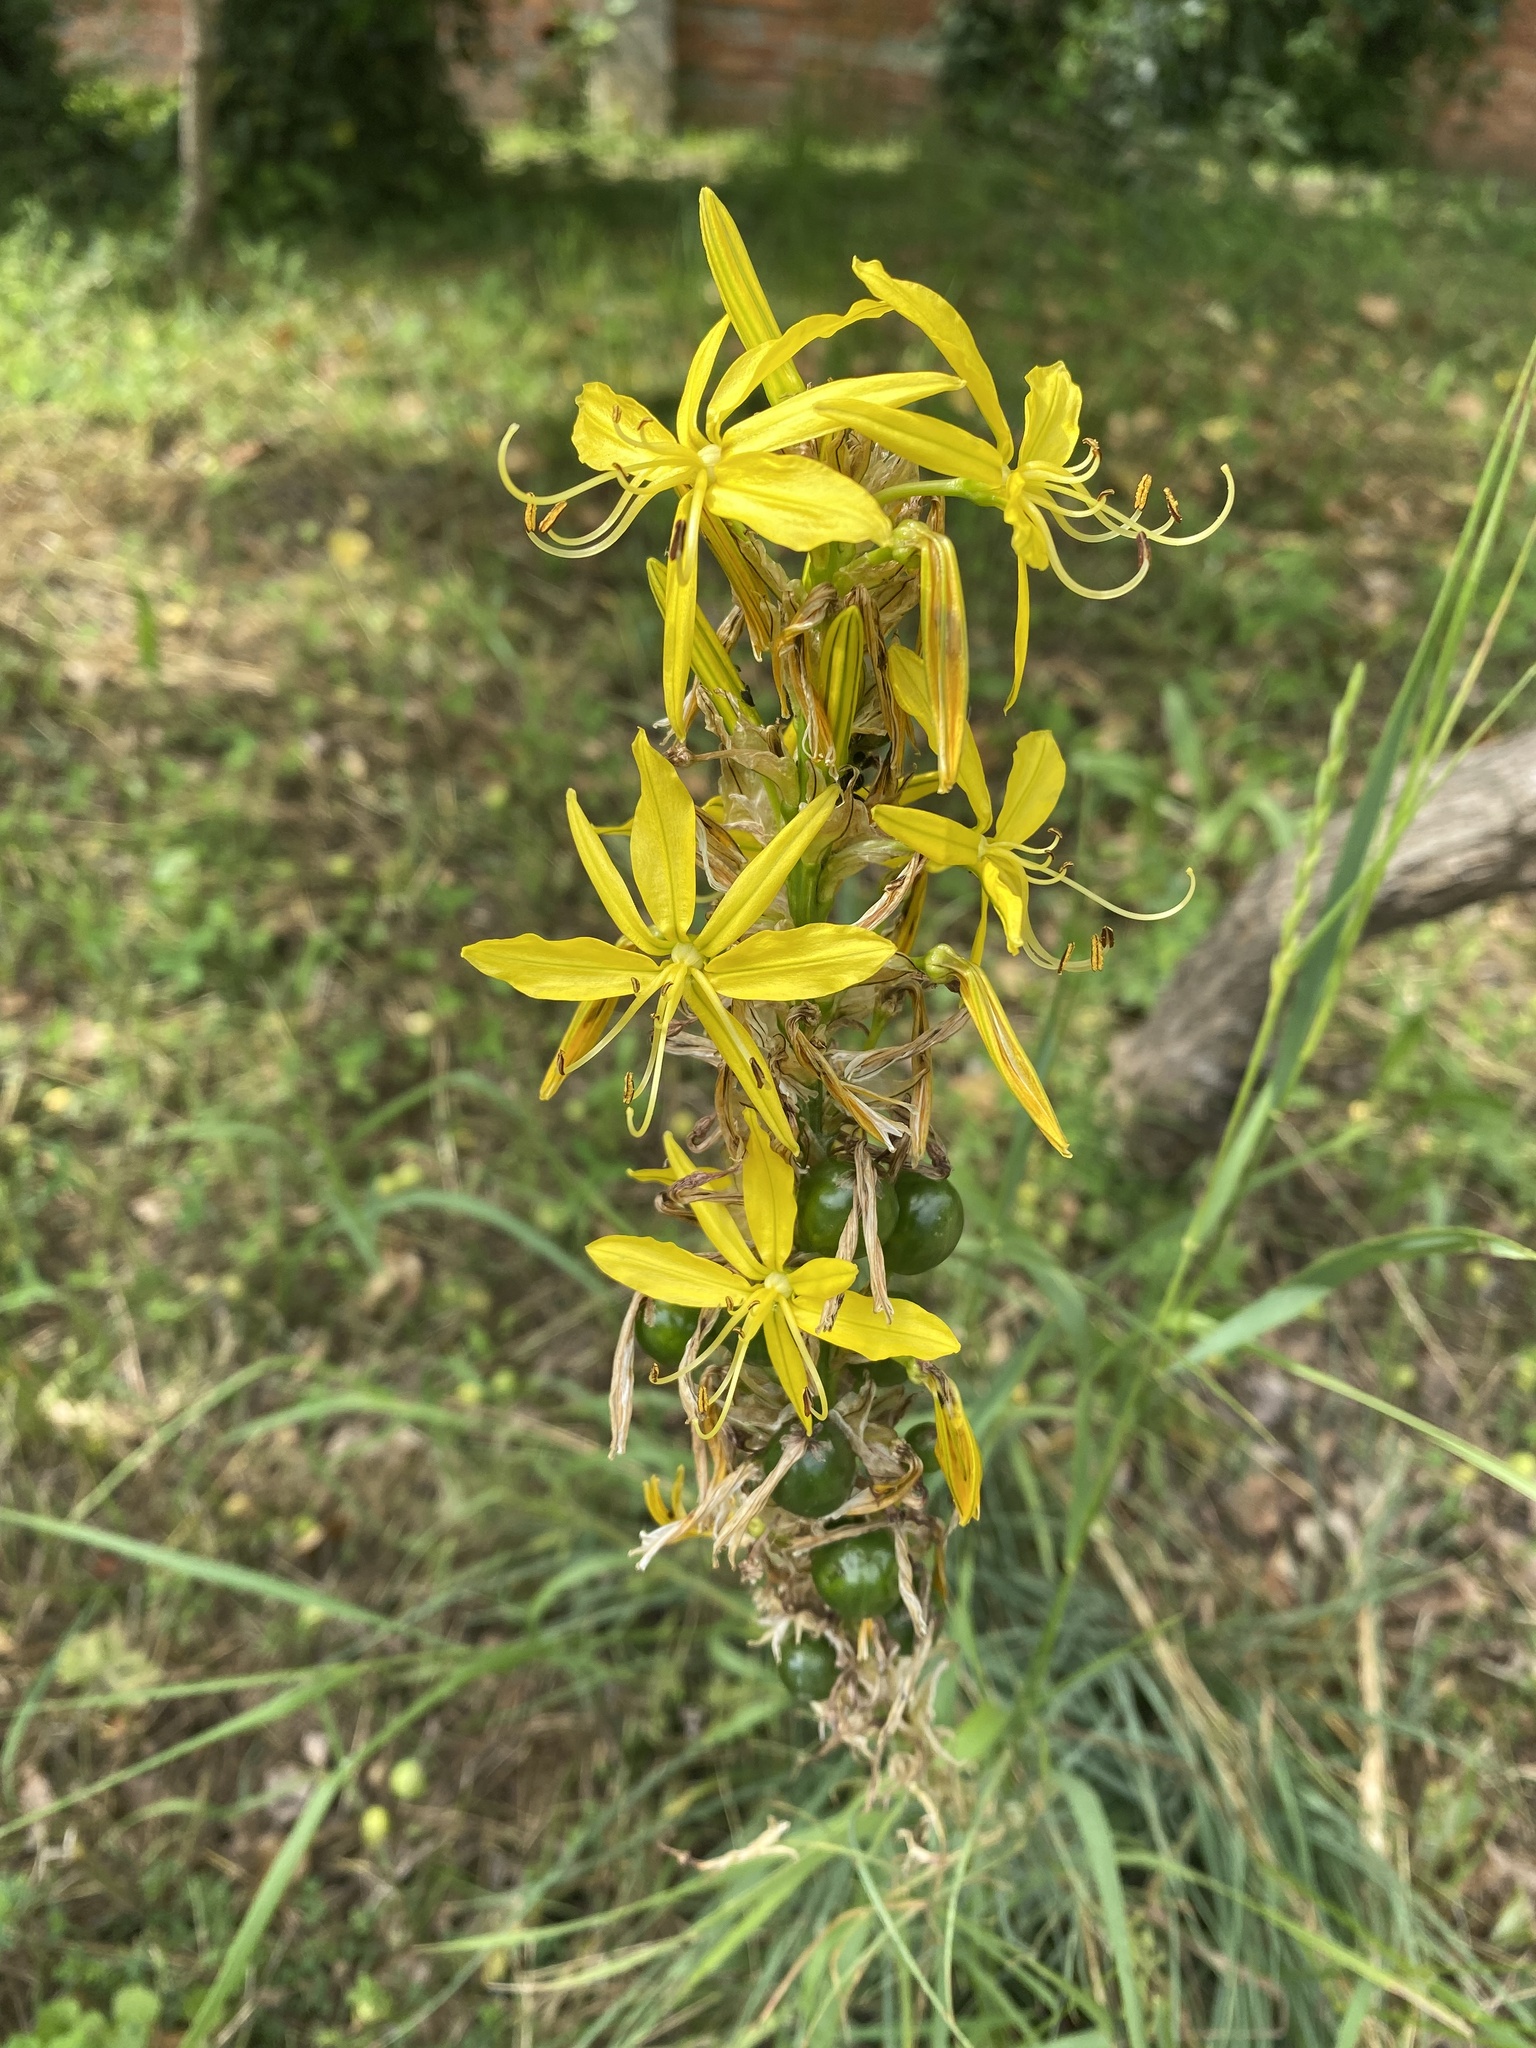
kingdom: Plantae
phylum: Tracheophyta
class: Liliopsida
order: Asparagales
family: Asphodelaceae
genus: Asphodeline
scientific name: Asphodeline lutea
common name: Yellow asphodel
